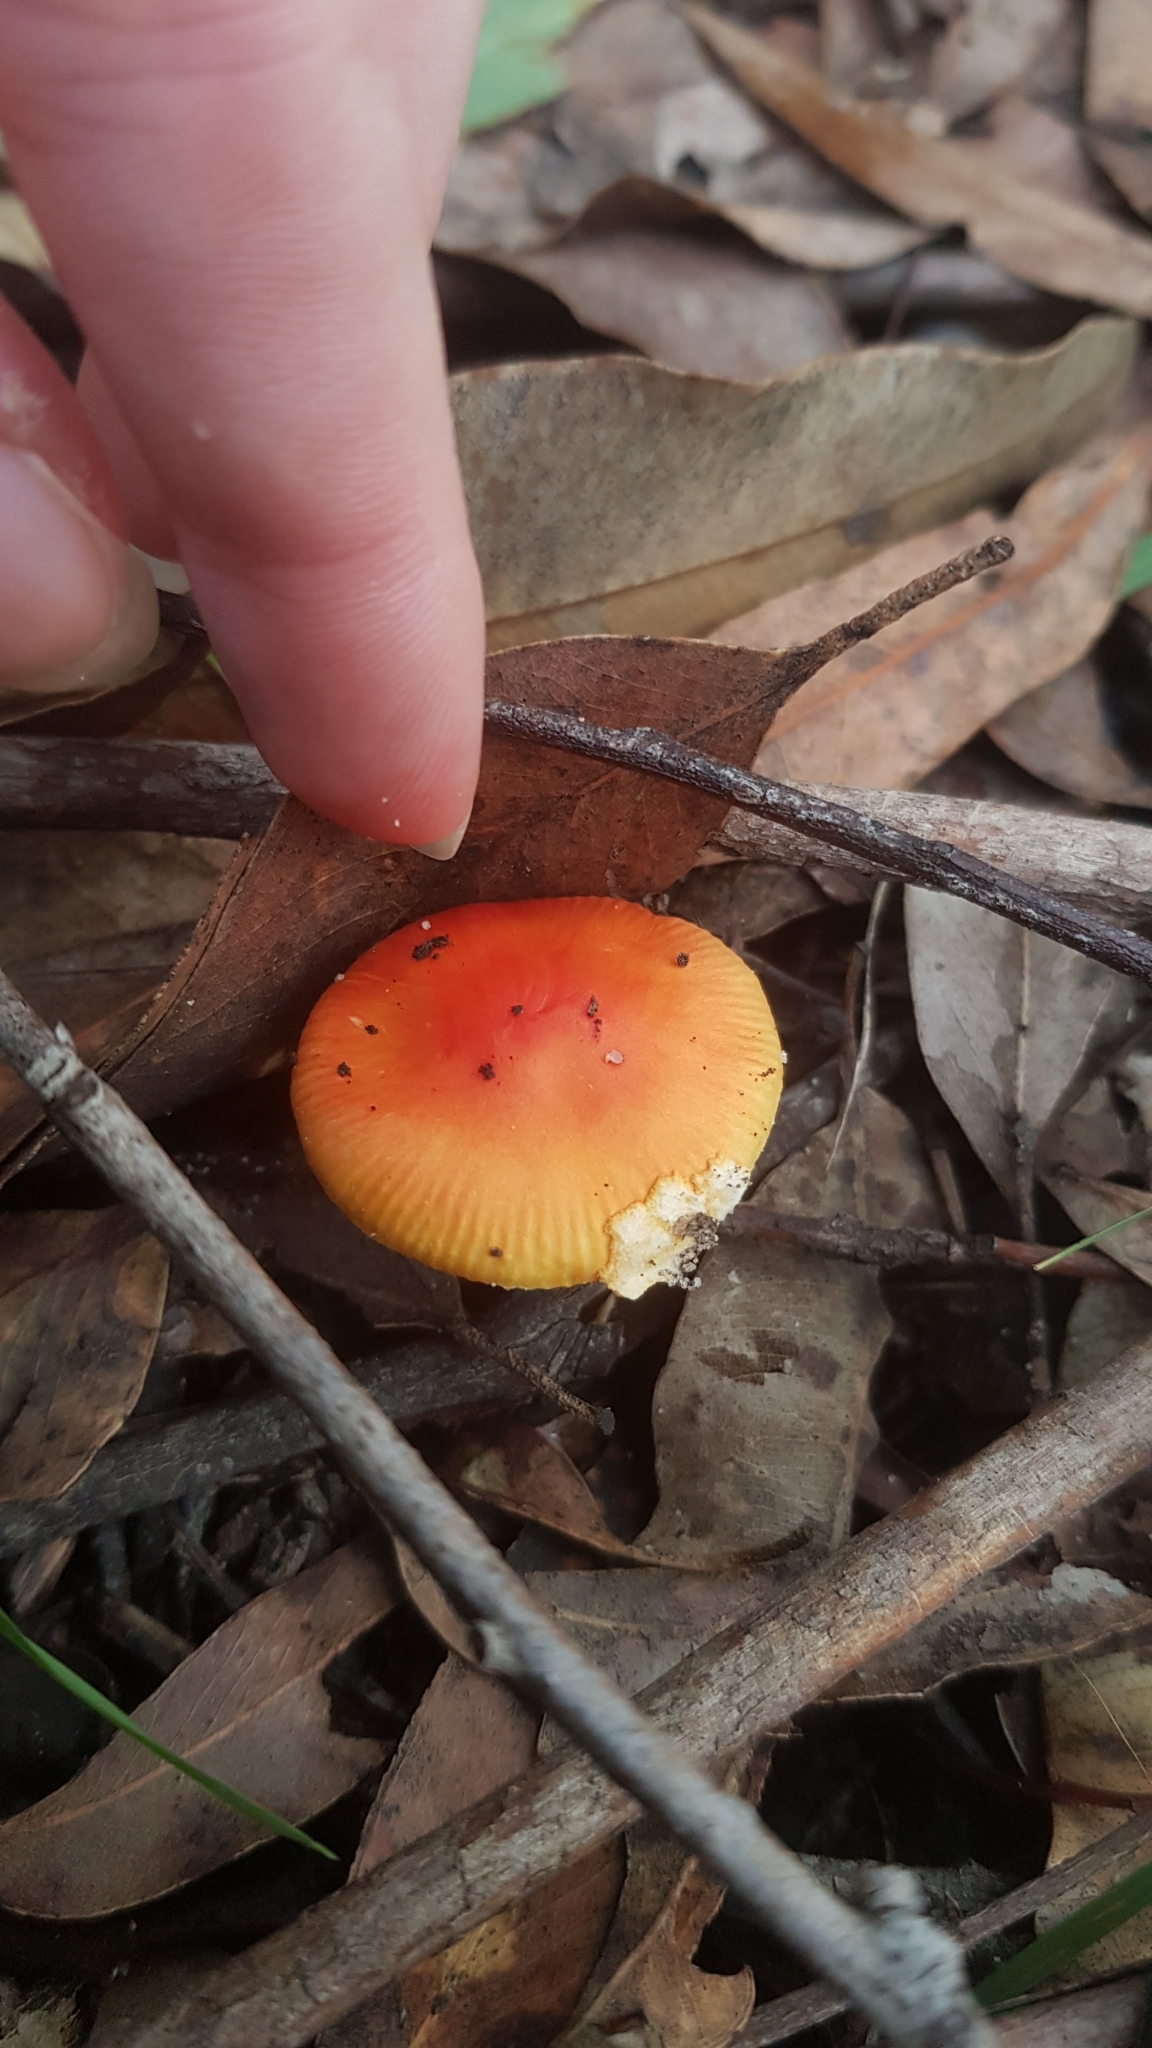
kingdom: Fungi
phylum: Basidiomycota
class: Agaricomycetes
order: Agaricales
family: Amanitaceae
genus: Amanita
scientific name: Amanita xanthocephala
